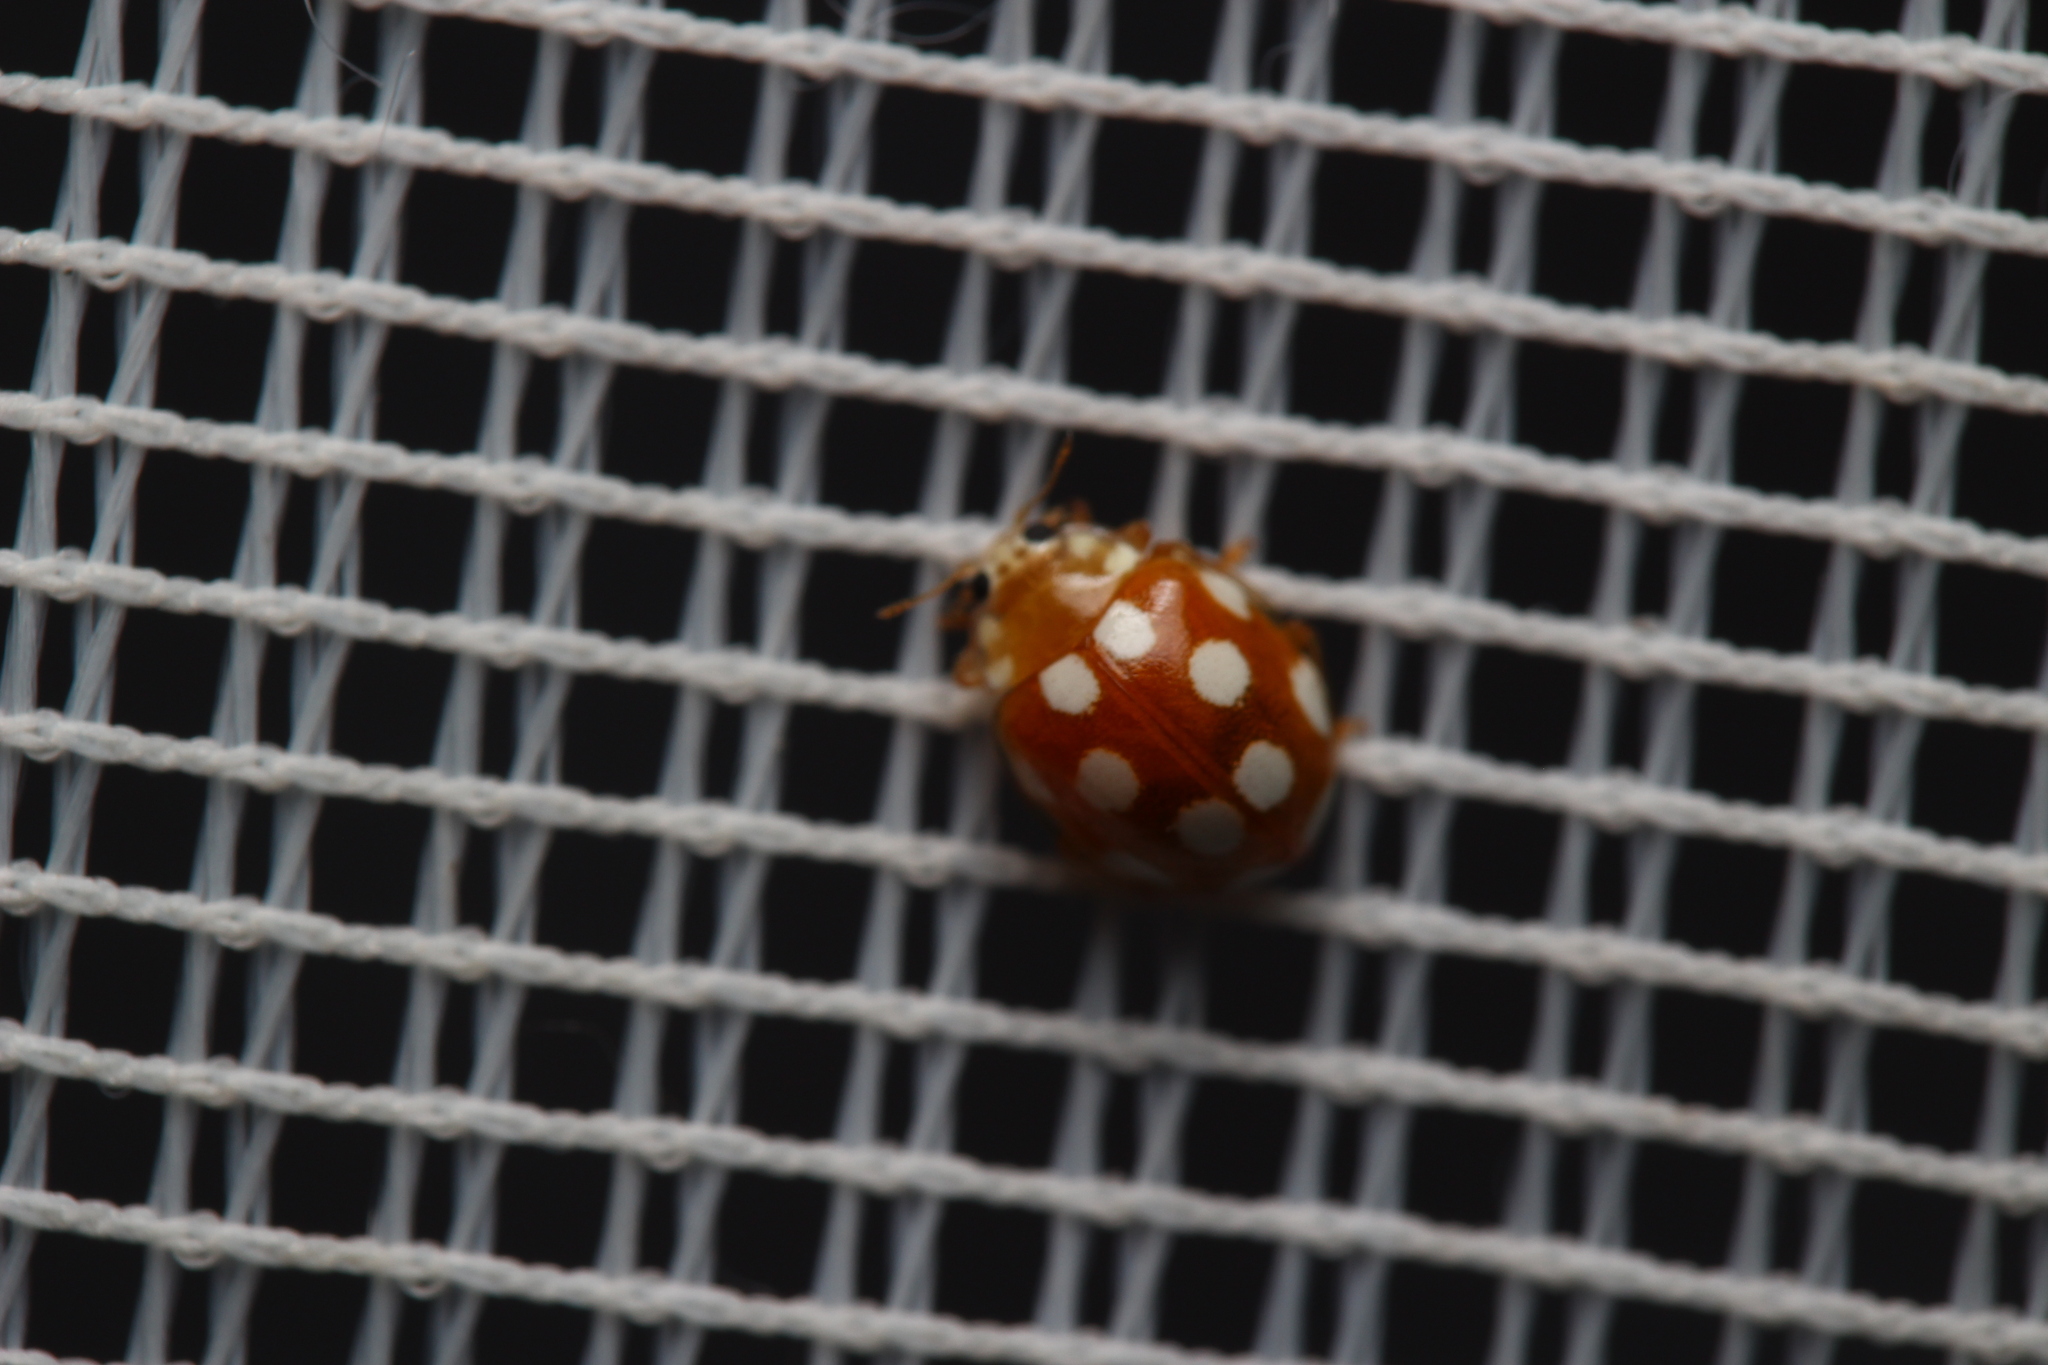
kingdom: Animalia
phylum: Arthropoda
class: Insecta
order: Coleoptera
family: Coccinellidae
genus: Vibidia
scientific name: Vibidia duodecimguttata
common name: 12-spot ladybird
